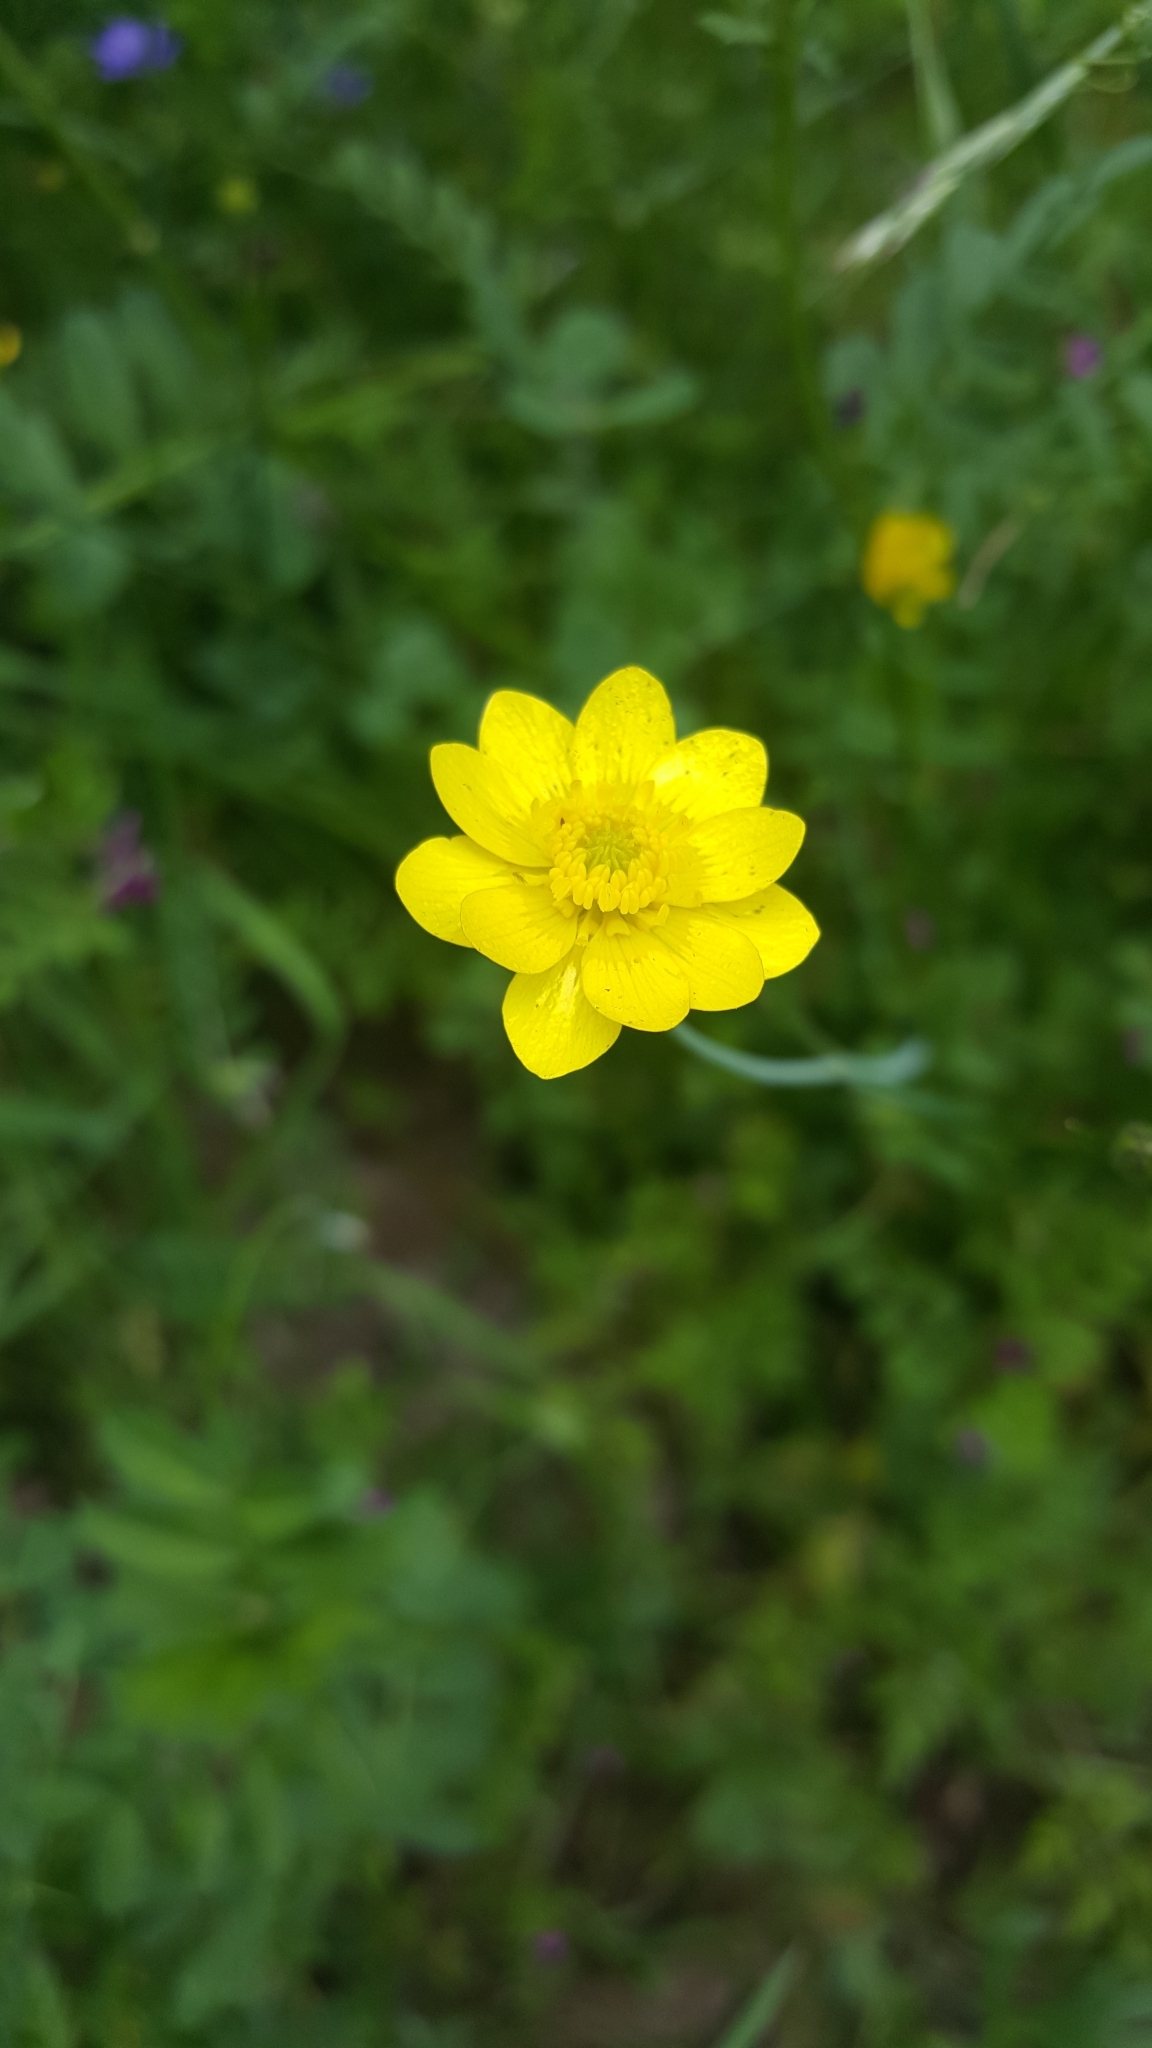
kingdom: Plantae
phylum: Tracheophyta
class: Magnoliopsida
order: Ranunculales
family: Ranunculaceae
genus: Ranunculus
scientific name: Ranunculus californicus
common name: California buttercup
